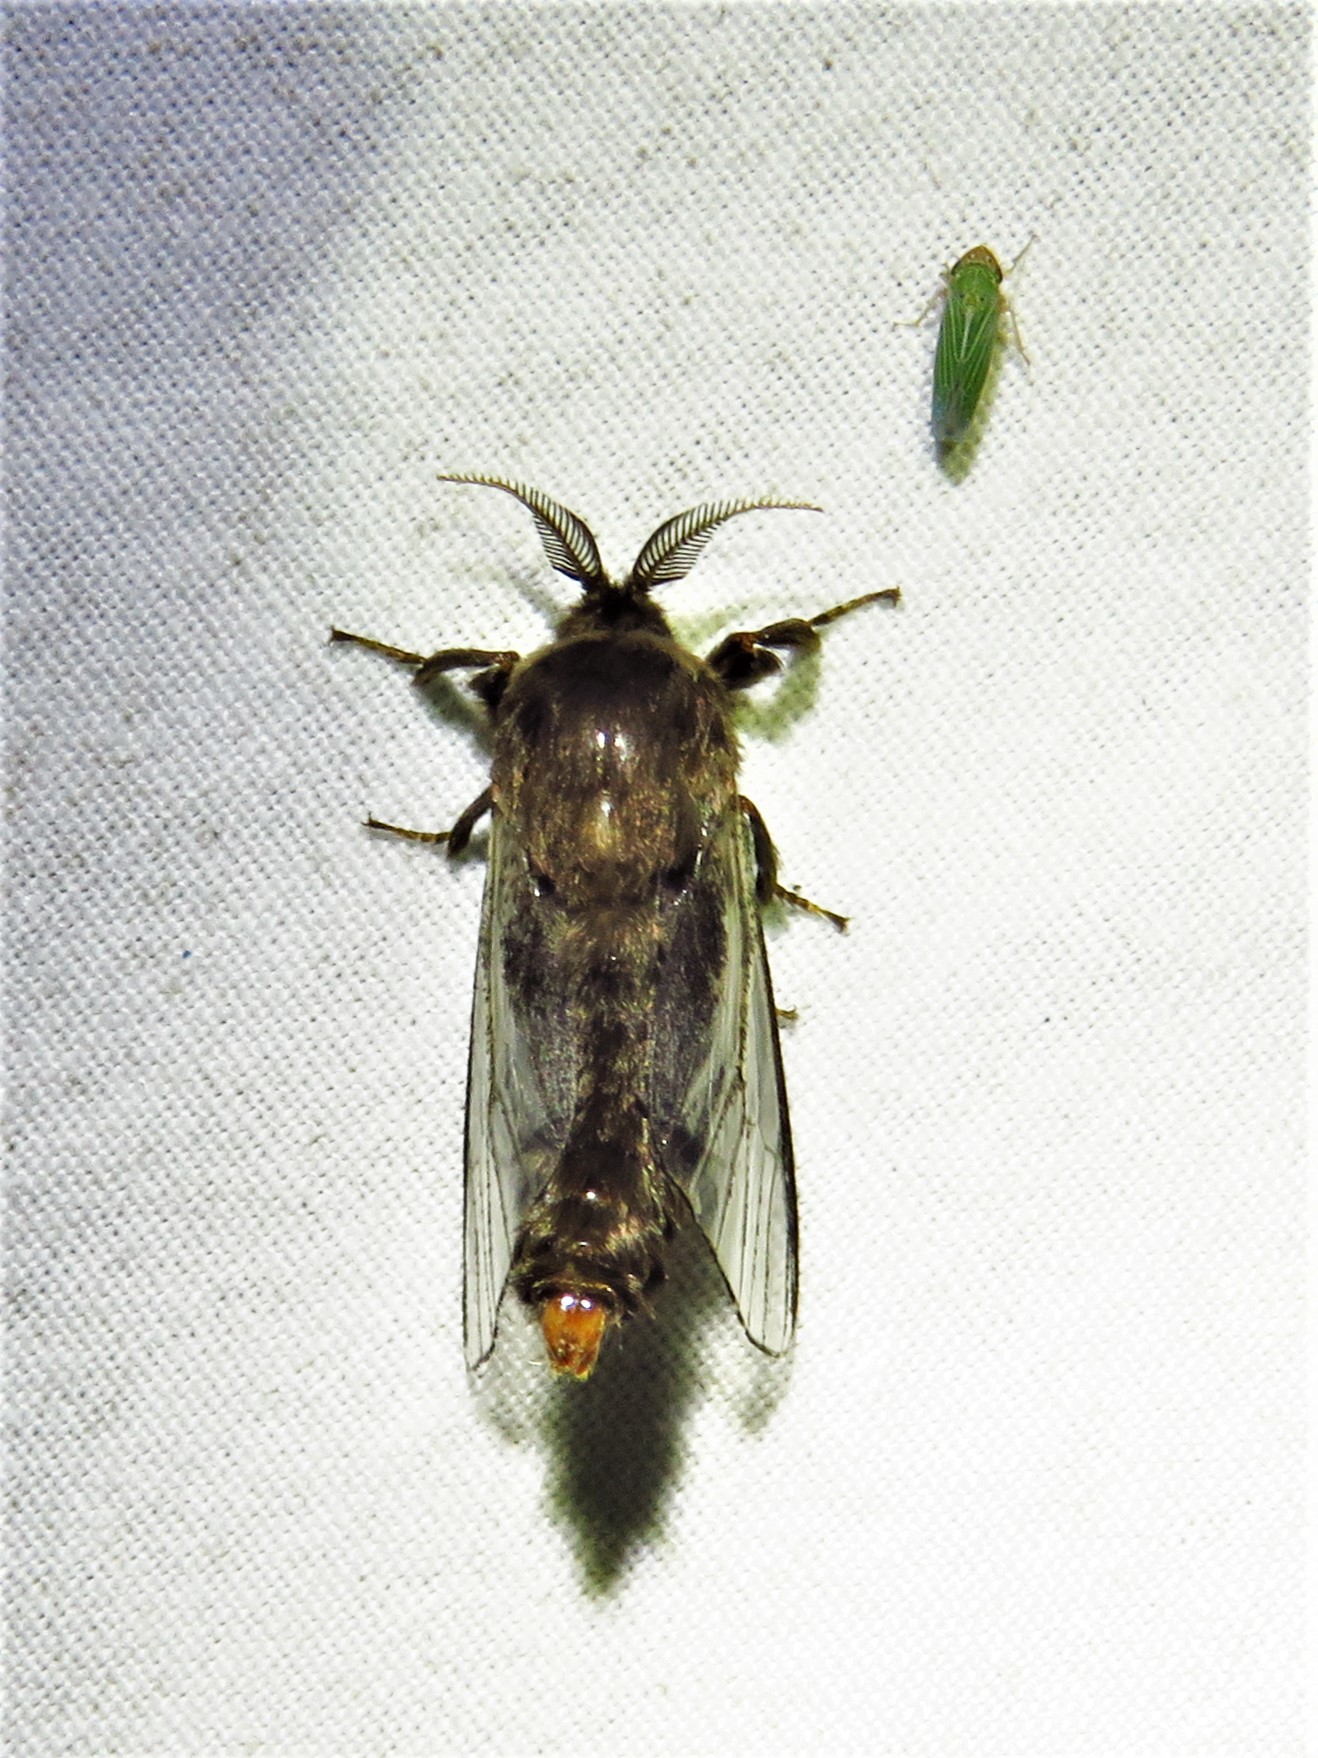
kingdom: Animalia
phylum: Arthropoda
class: Insecta
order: Lepidoptera
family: Psychidae
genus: Thyridopteryx
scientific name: Thyridopteryx ephemeraeformis
